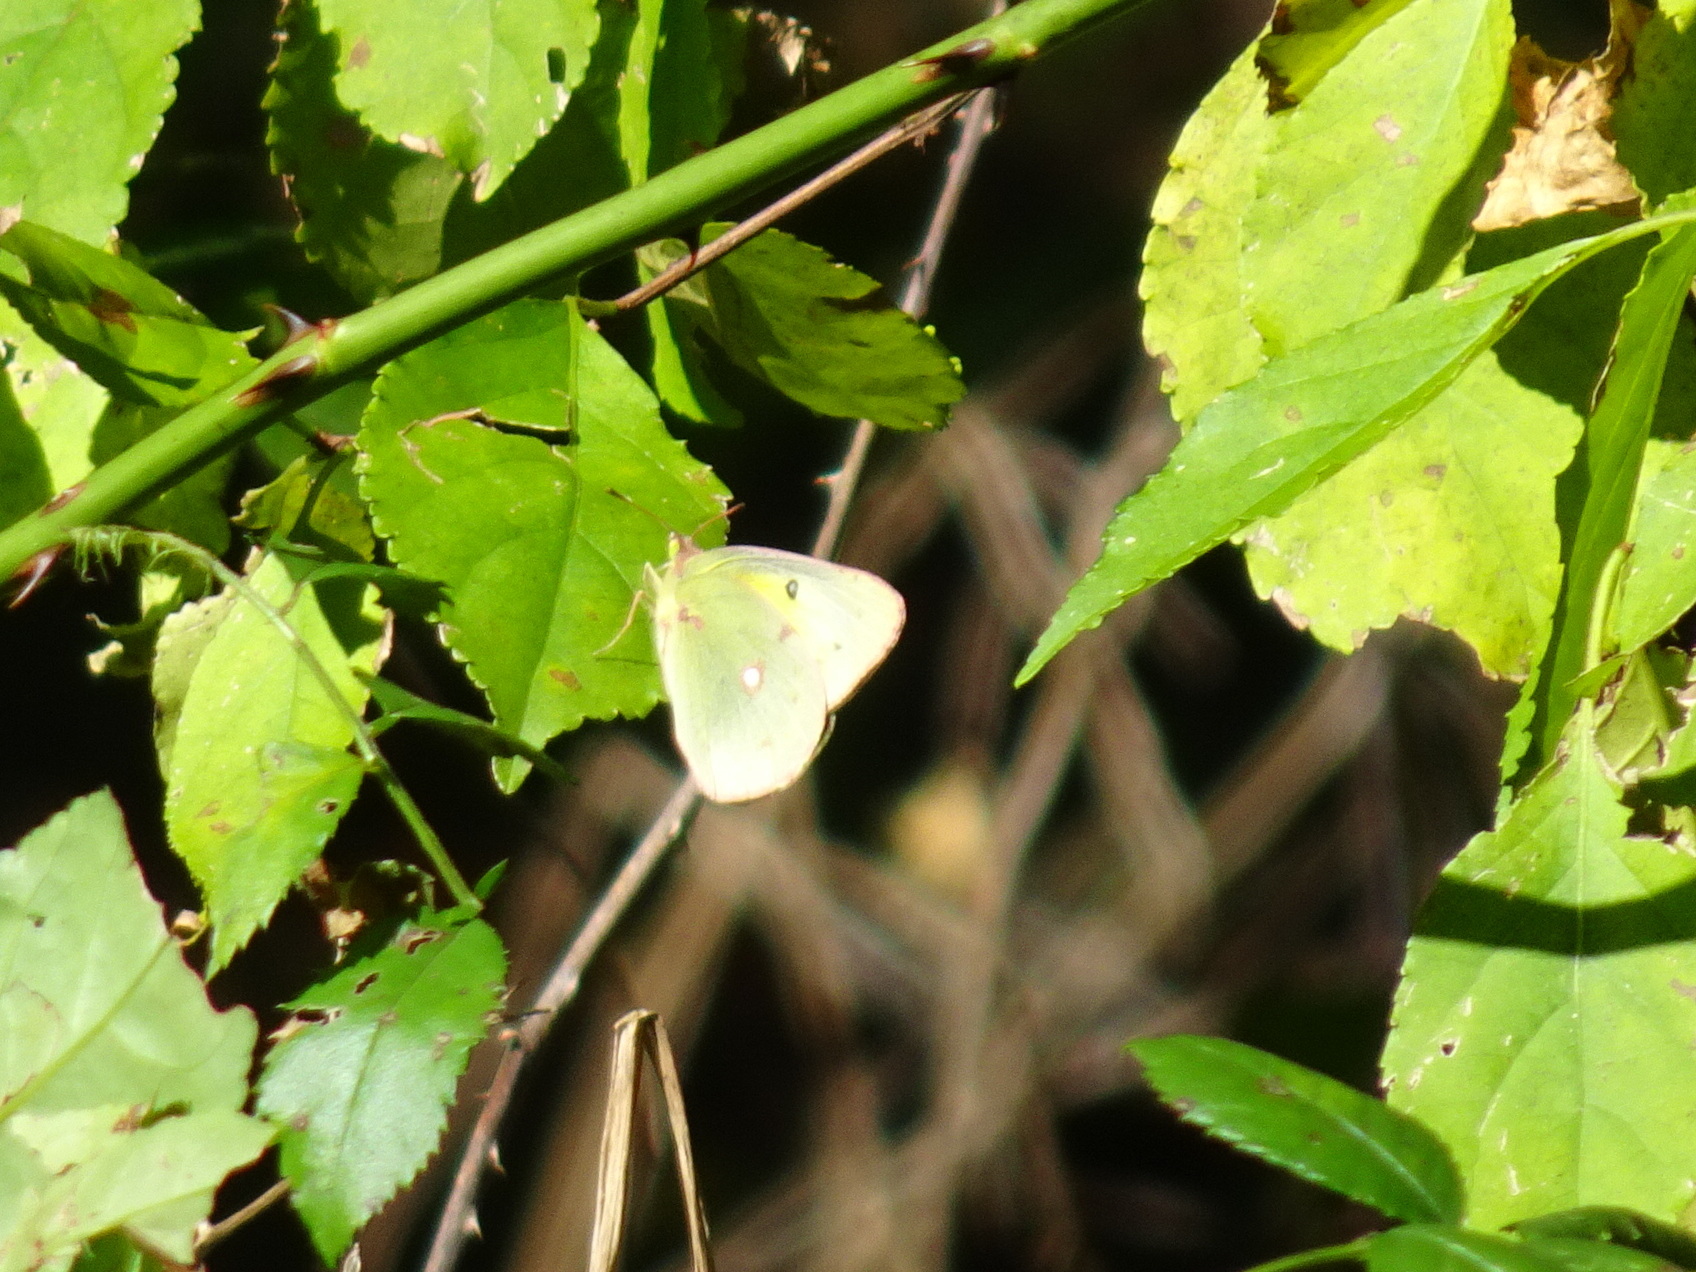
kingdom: Animalia
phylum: Arthropoda
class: Insecta
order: Lepidoptera
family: Pieridae
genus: Colias
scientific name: Colias eurytheme
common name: Alfalfa butterfly
